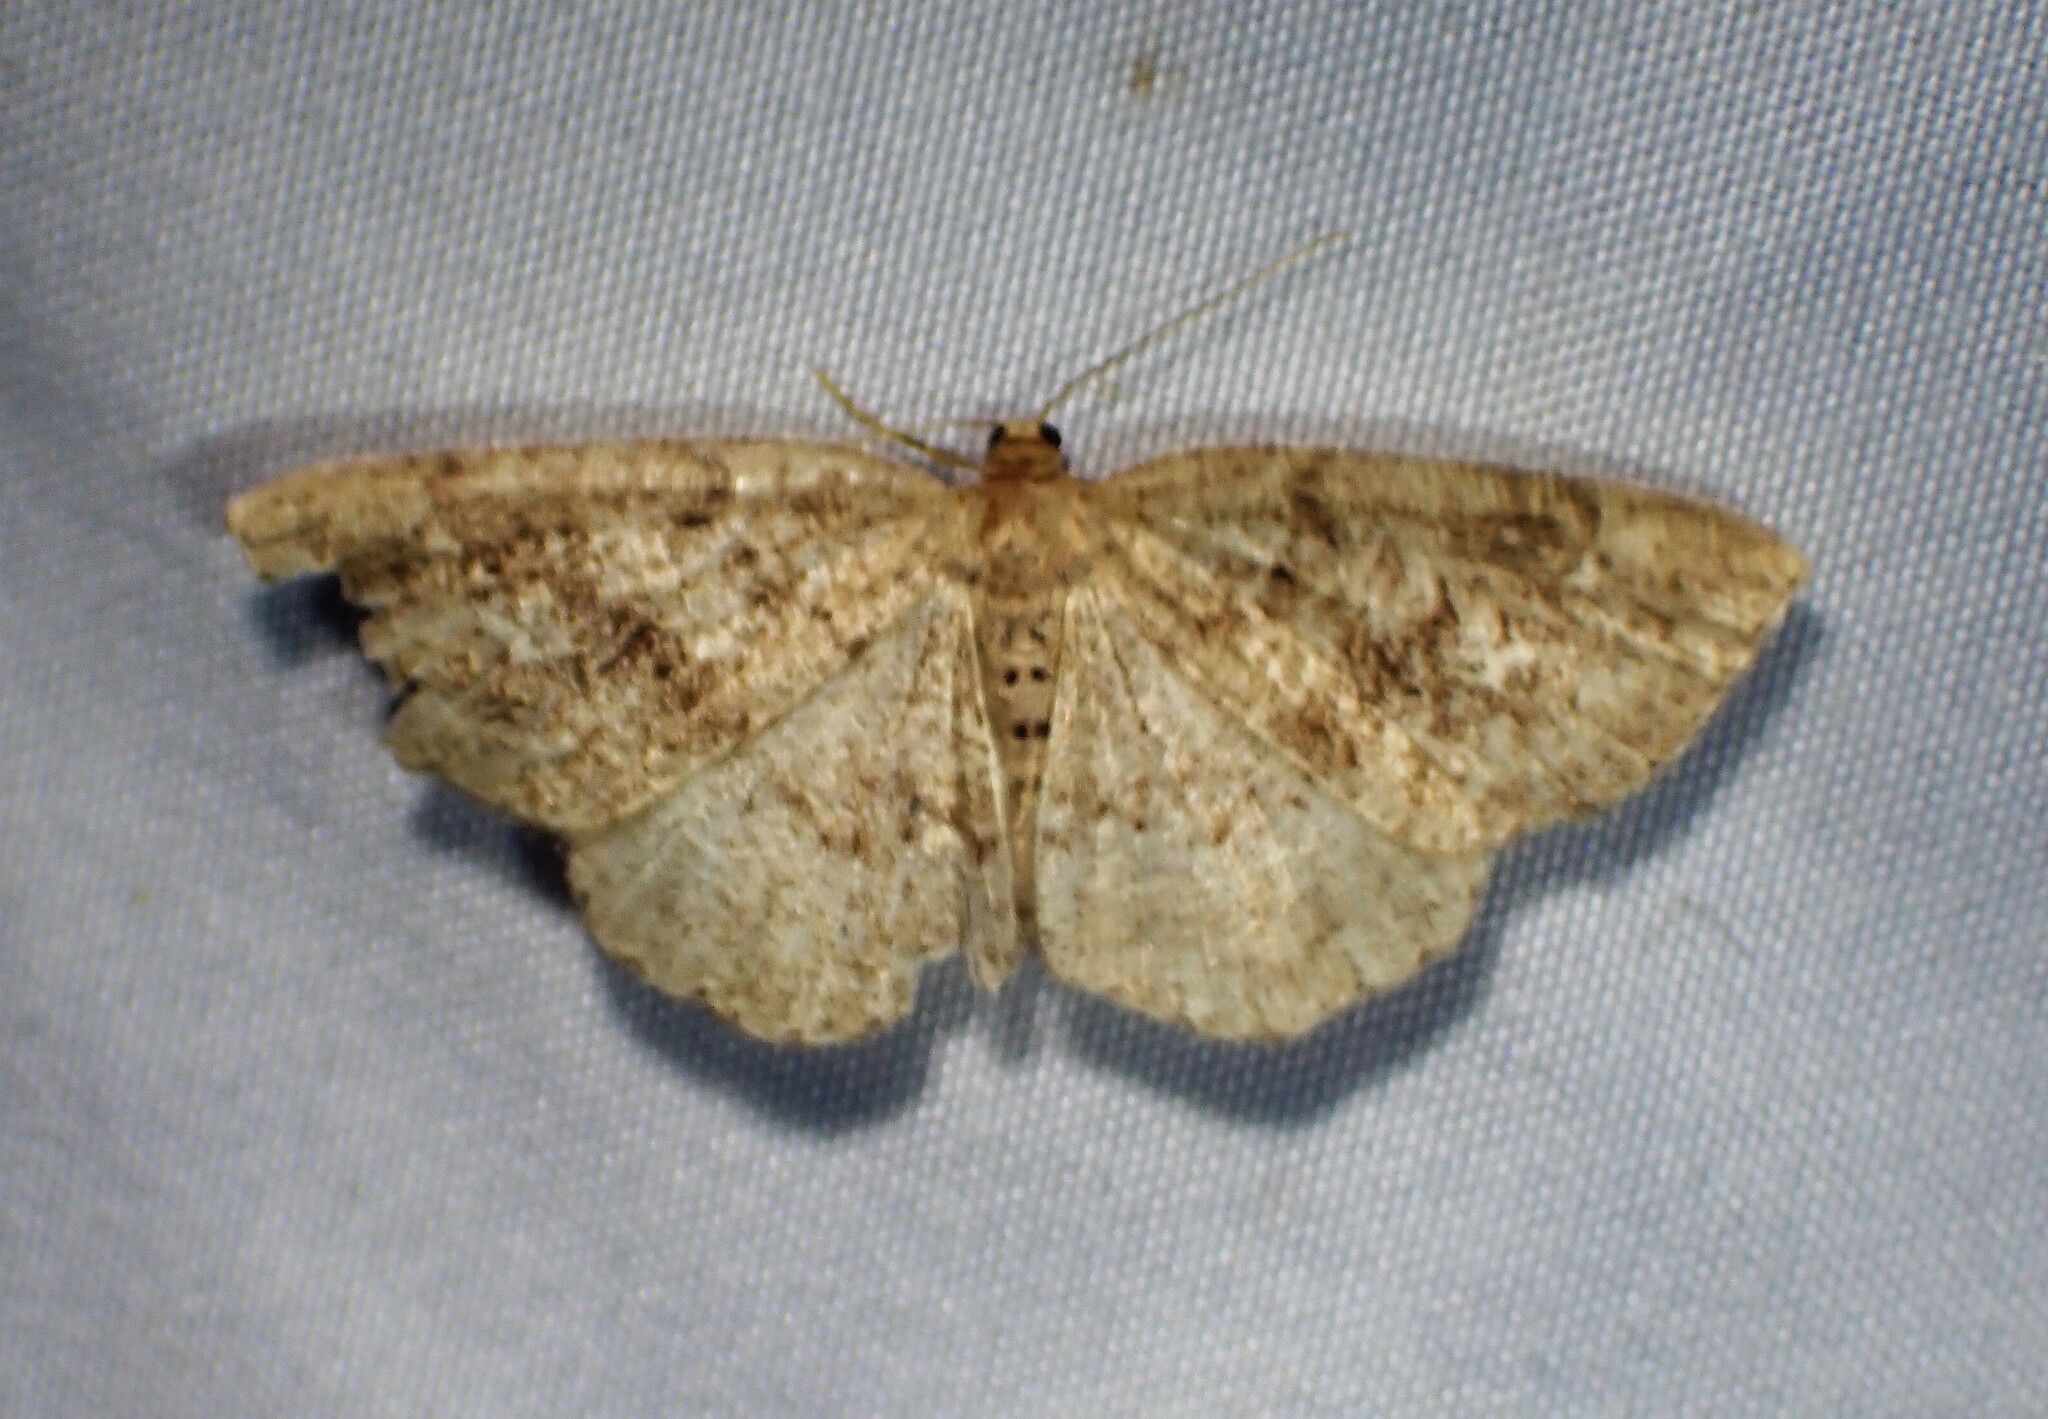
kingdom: Animalia
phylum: Arthropoda
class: Insecta
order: Lepidoptera
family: Geometridae
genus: Homochlodes
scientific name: Homochlodes fritillaria
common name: Pale homochlodes
